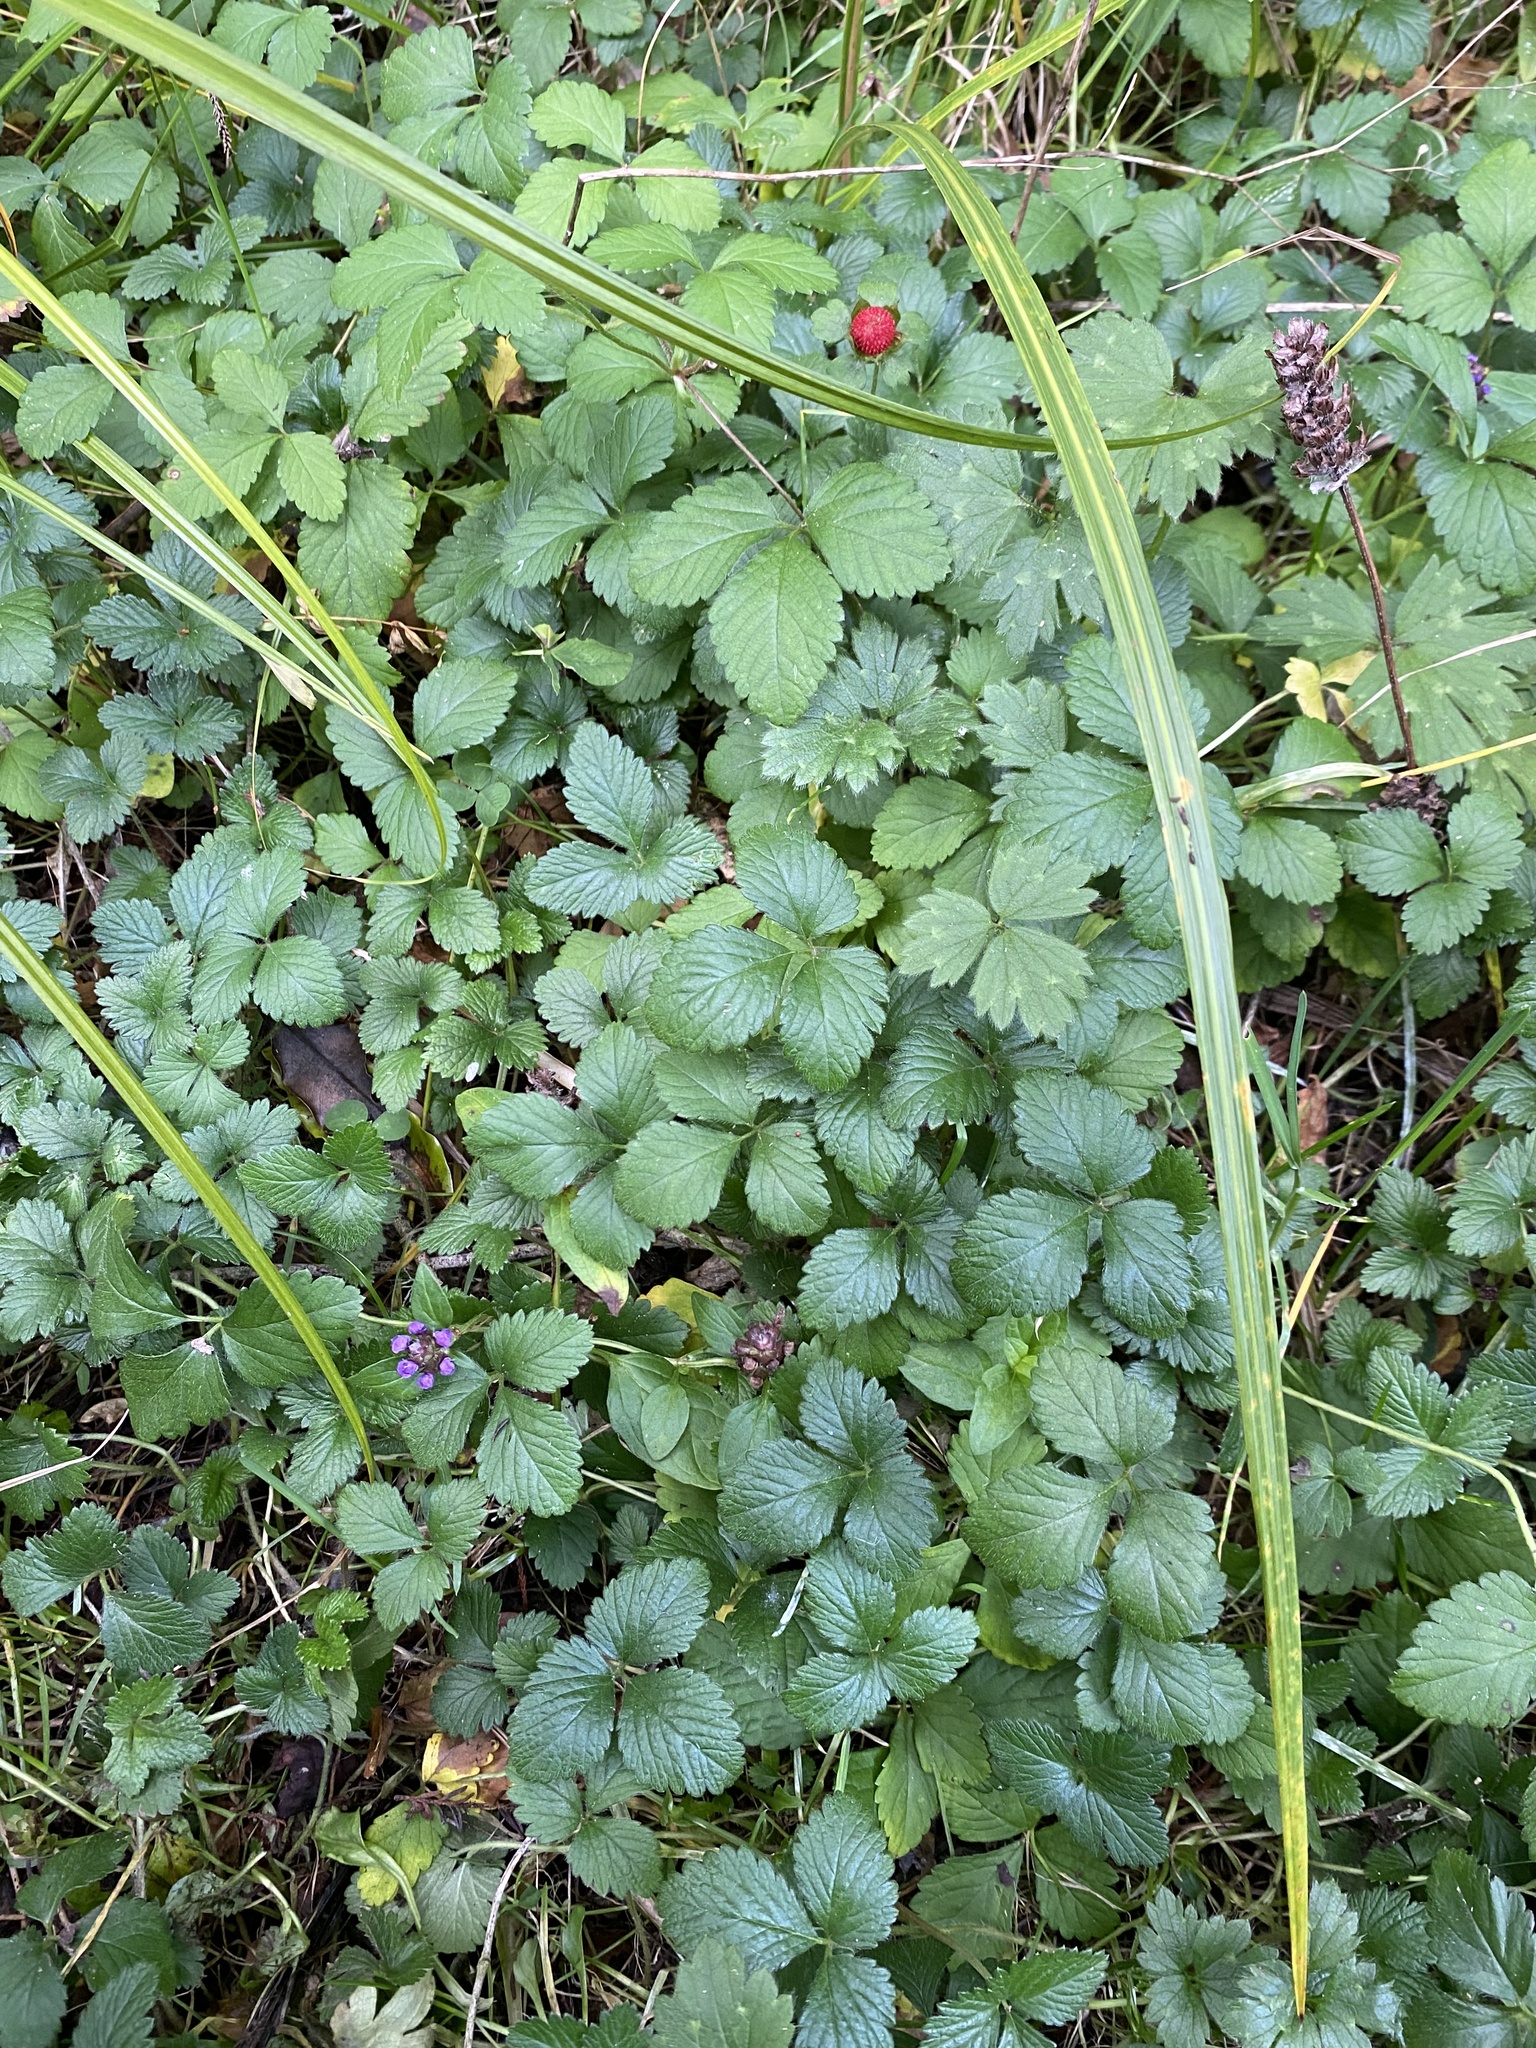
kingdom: Plantae
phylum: Tracheophyta
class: Magnoliopsida
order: Rosales
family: Rosaceae
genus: Potentilla
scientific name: Potentilla indica
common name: Yellow-flowered strawberry
